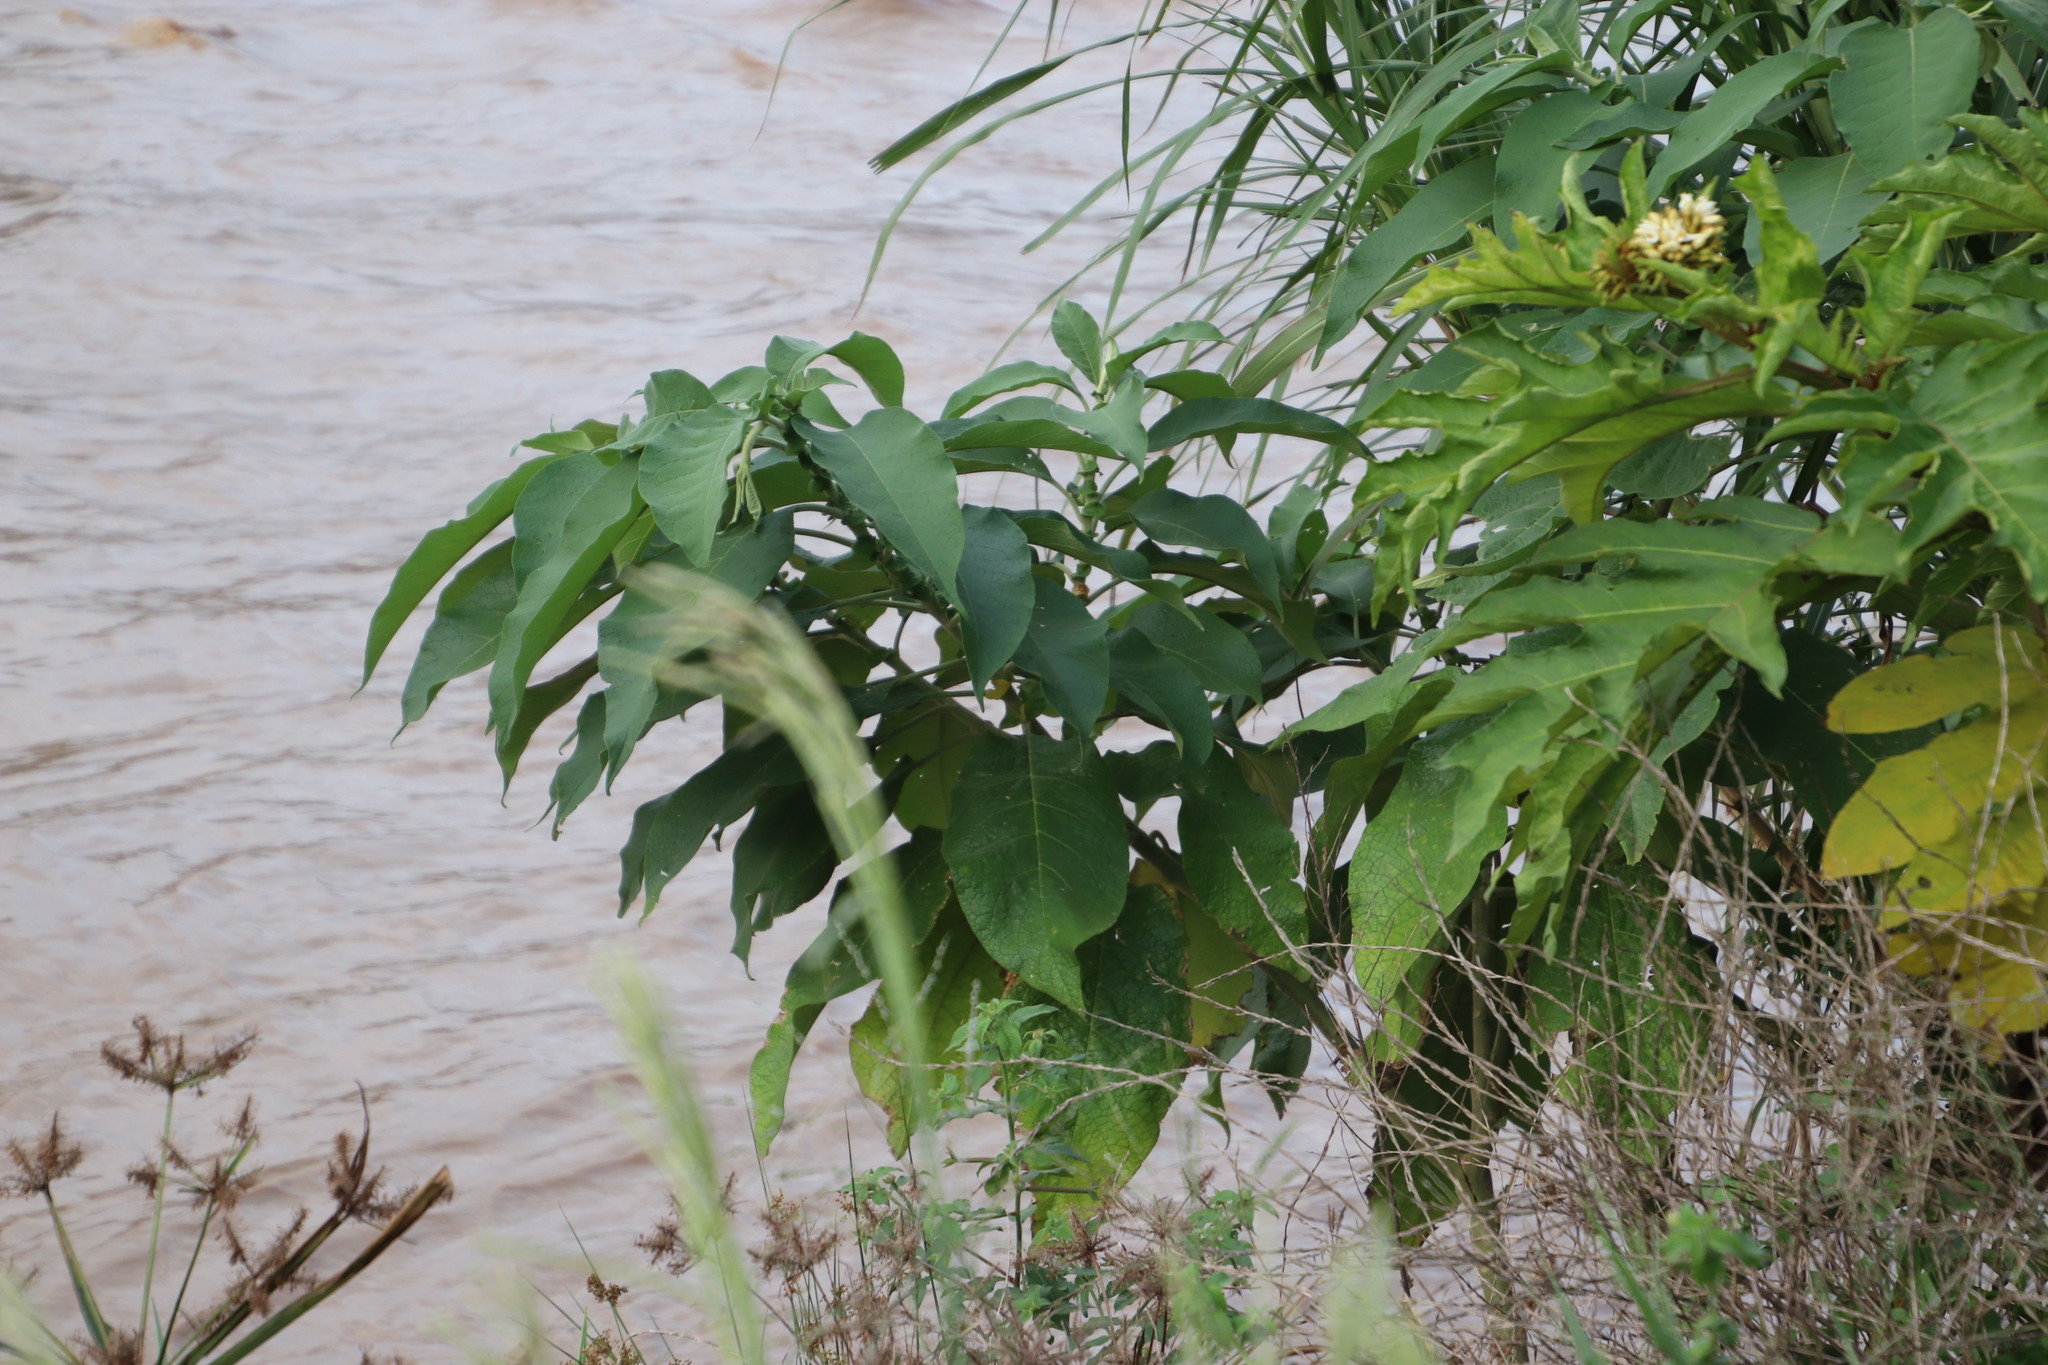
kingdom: Plantae
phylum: Tracheophyta
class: Magnoliopsida
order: Solanales
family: Solanaceae
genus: Solanum
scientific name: Solanum mauritianum
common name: Earleaf nightshade
